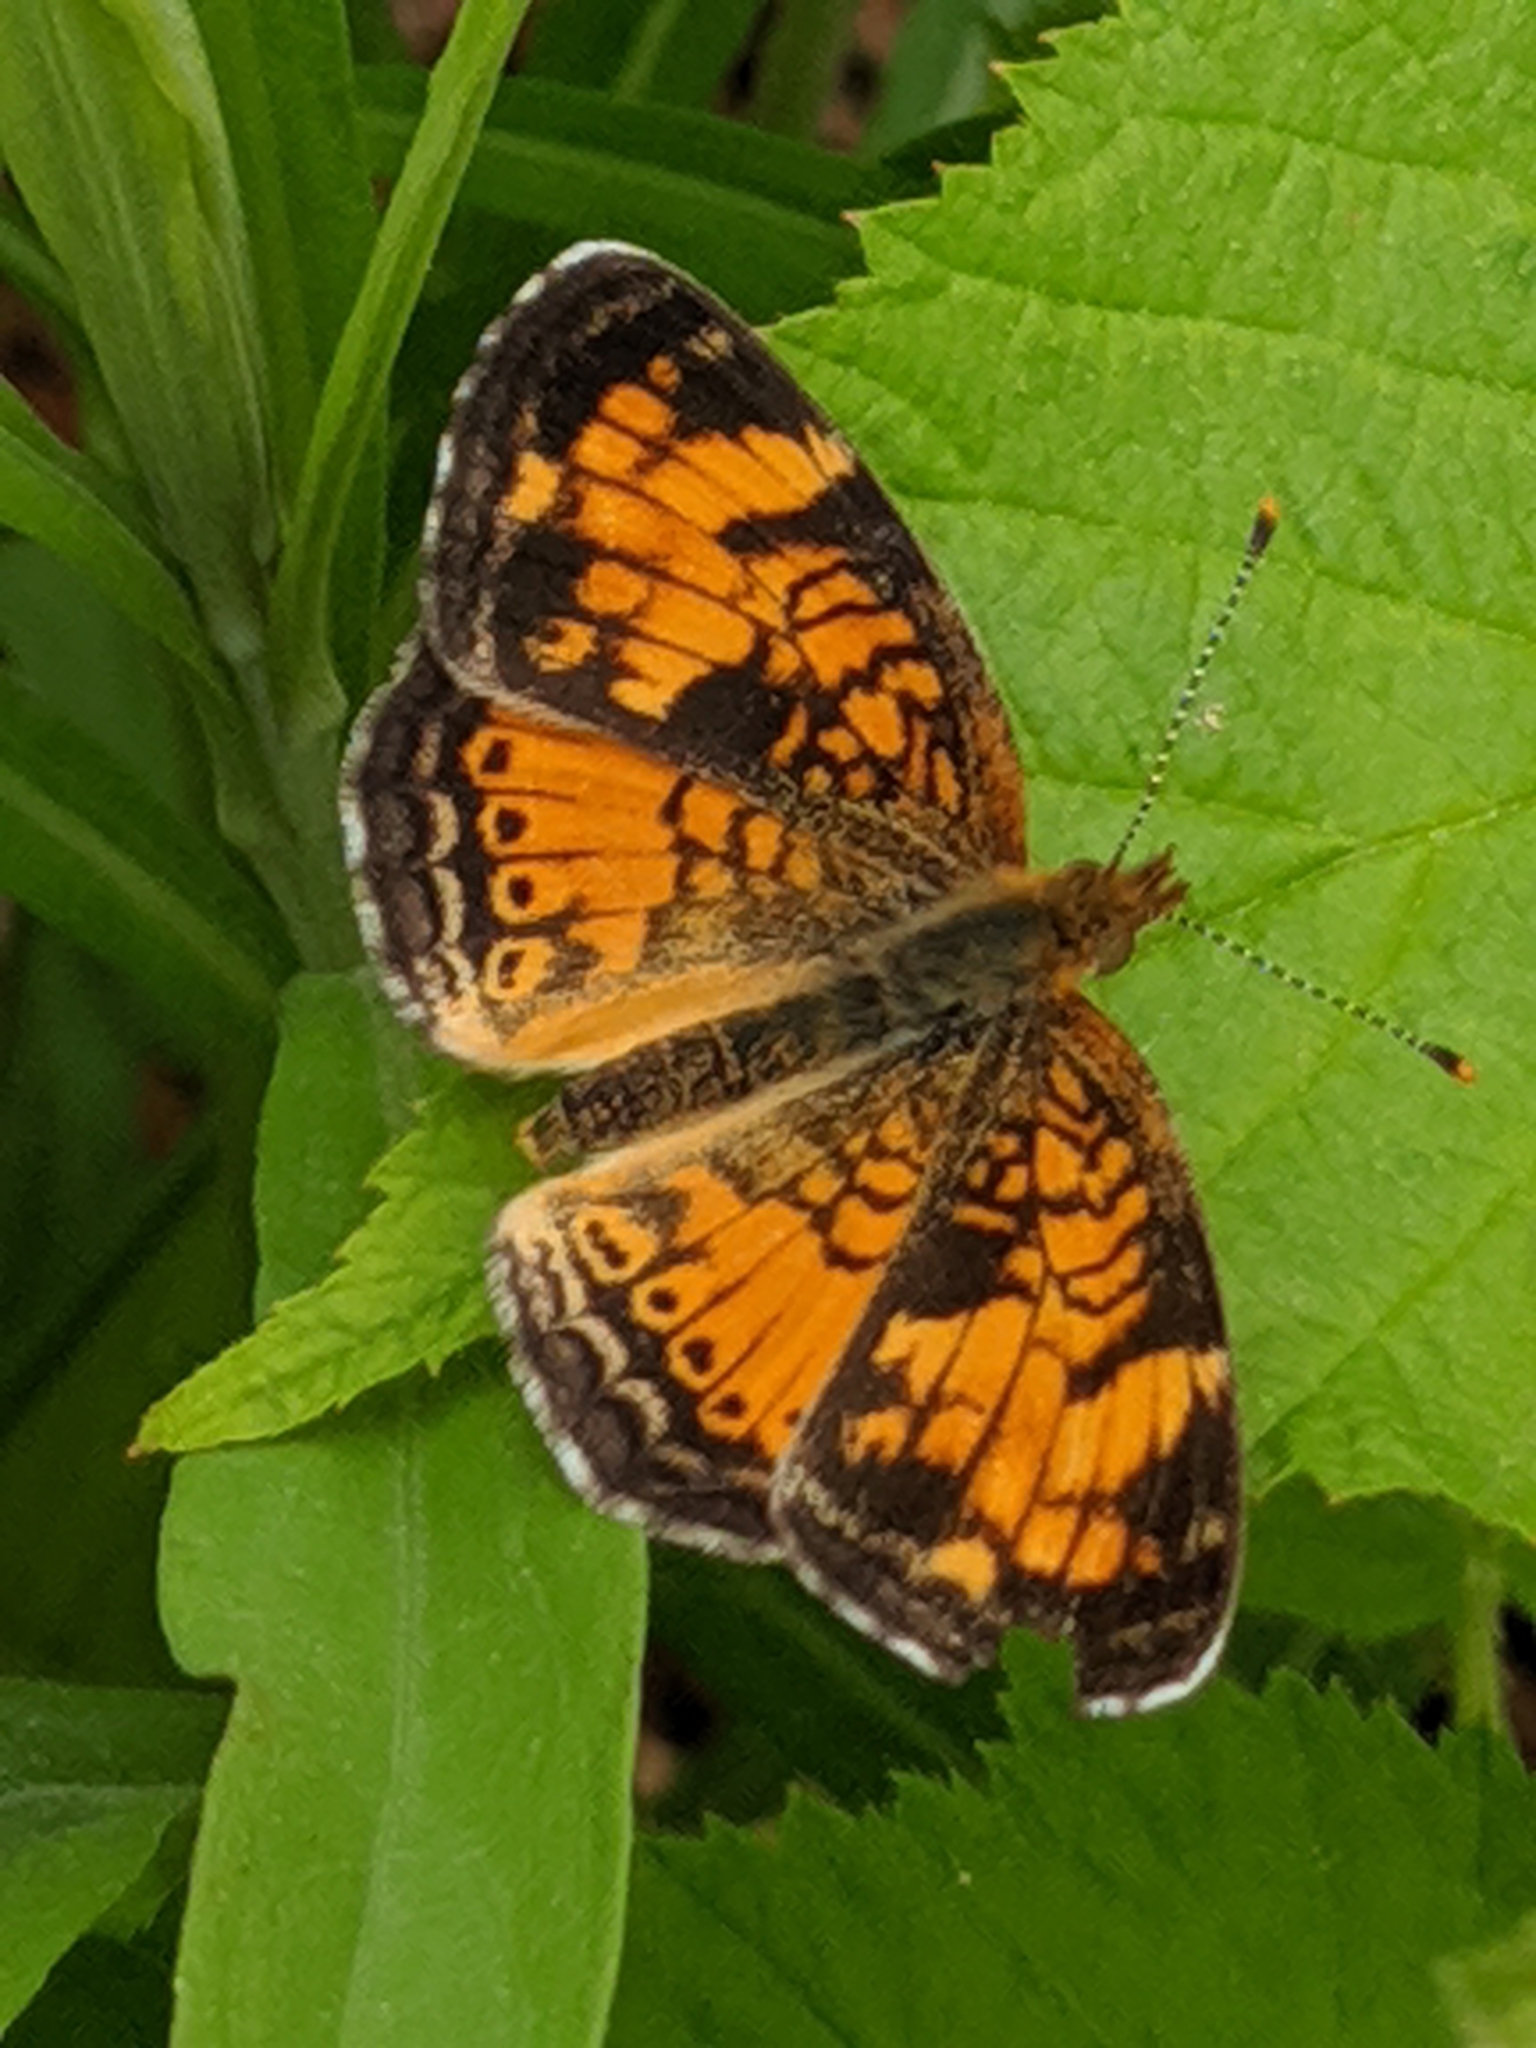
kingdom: Animalia
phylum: Arthropoda
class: Insecta
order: Lepidoptera
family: Nymphalidae
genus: Phyciodes
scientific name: Phyciodes tharos
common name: Pearl crescent
